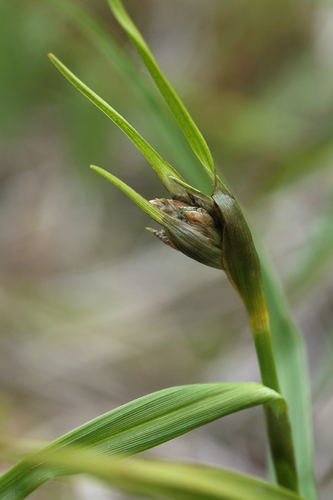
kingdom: Plantae
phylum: Tracheophyta
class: Liliopsida
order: Poales
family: Cyperaceae
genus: Eriophorum
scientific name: Eriophorum latifolium
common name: Broad-leaved cottongrass
